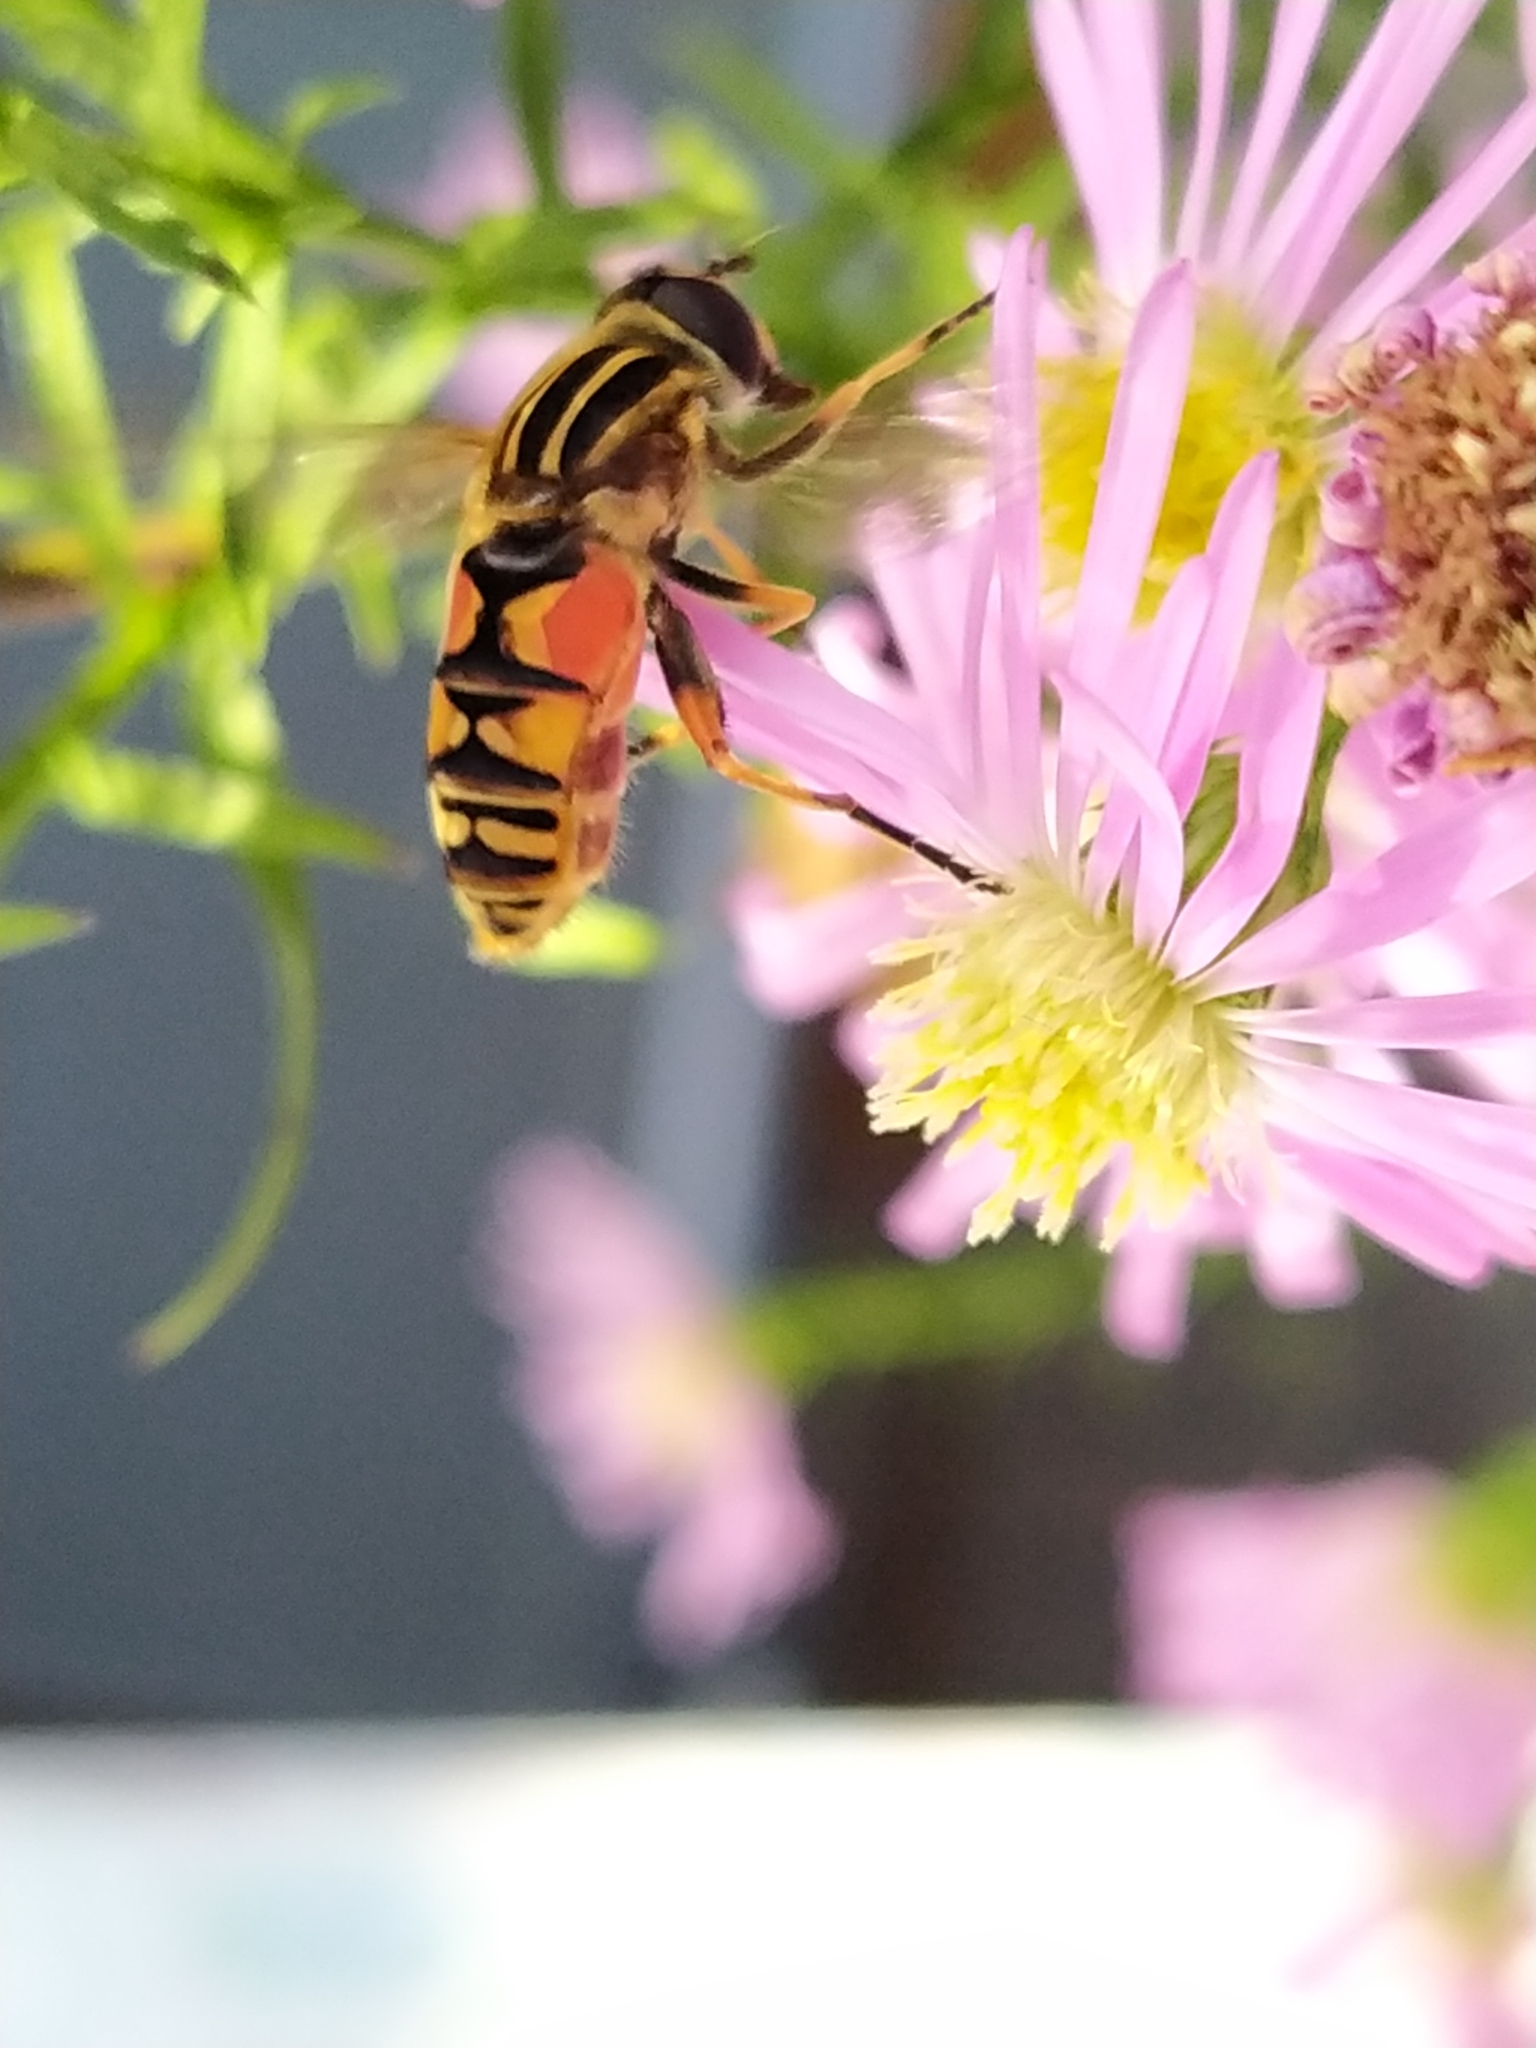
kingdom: Animalia
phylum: Arthropoda
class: Insecta
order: Diptera
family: Syrphidae
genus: Helophilus
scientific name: Helophilus pendulus
